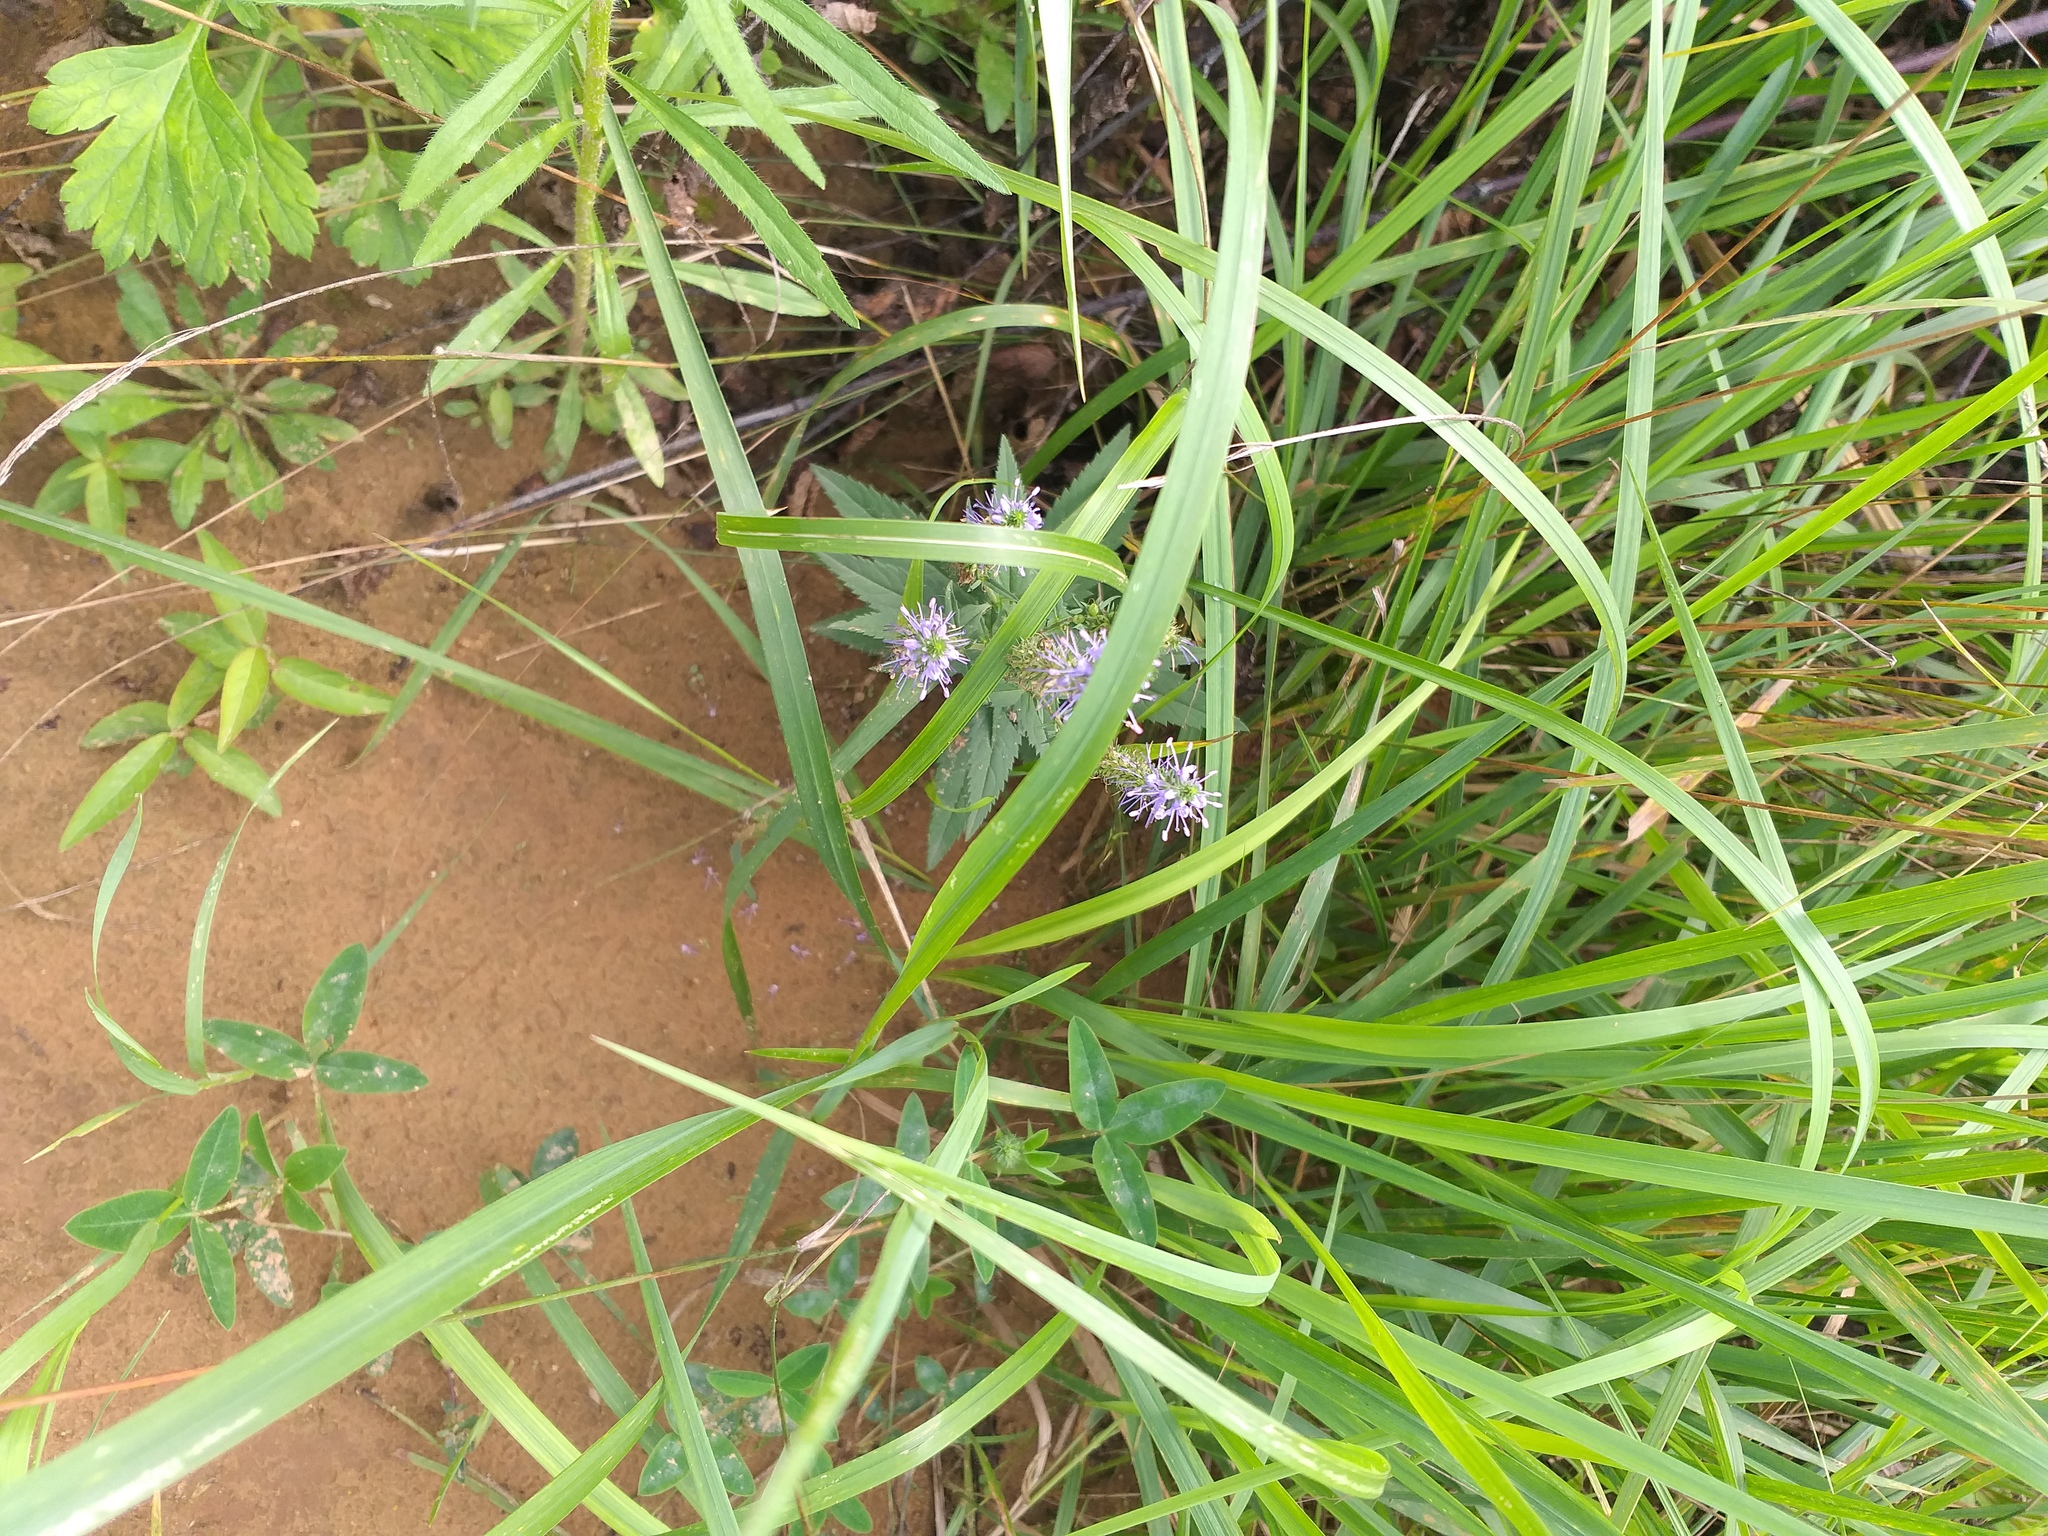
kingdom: Plantae
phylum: Tracheophyta
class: Magnoliopsida
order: Lamiales
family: Plantaginaceae
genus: Veronica
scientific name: Veronica longifolia
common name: Garden speedwell
